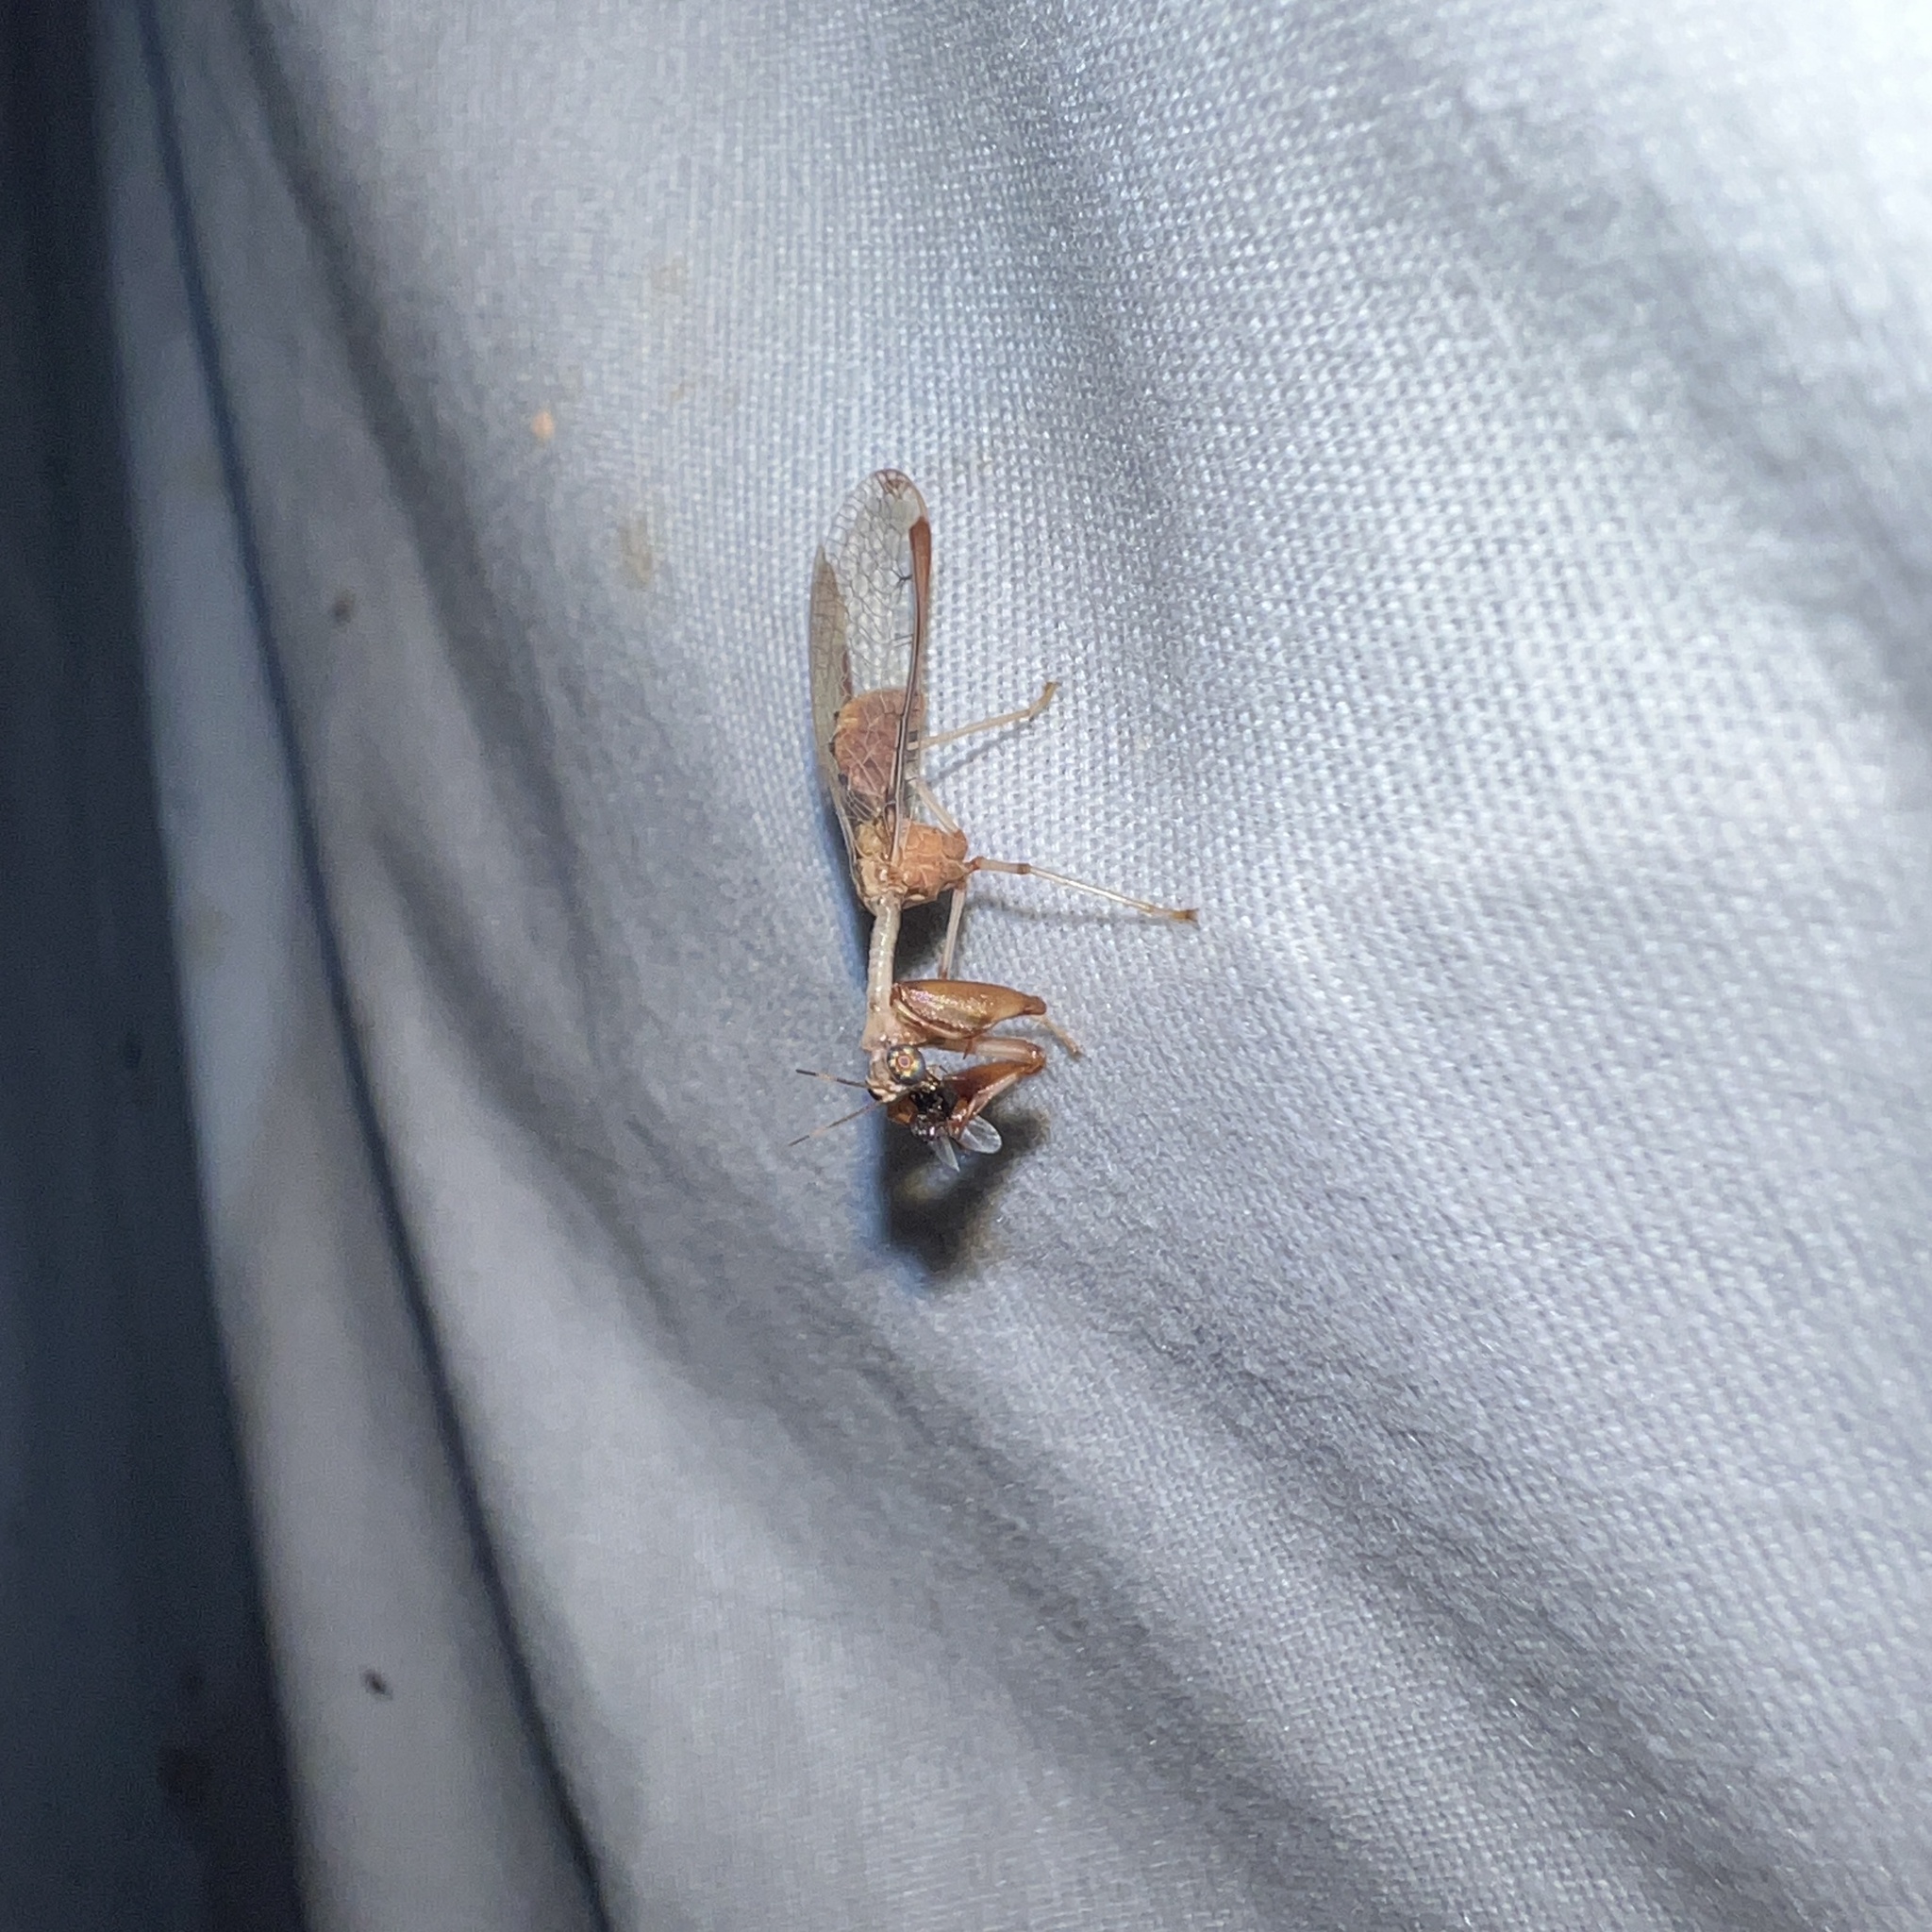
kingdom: Animalia
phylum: Arthropoda
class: Insecta
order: Neuroptera
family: Mantispidae
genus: Dicromantispa
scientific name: Dicromantispa interrupta
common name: Four-spotted mantidfly
